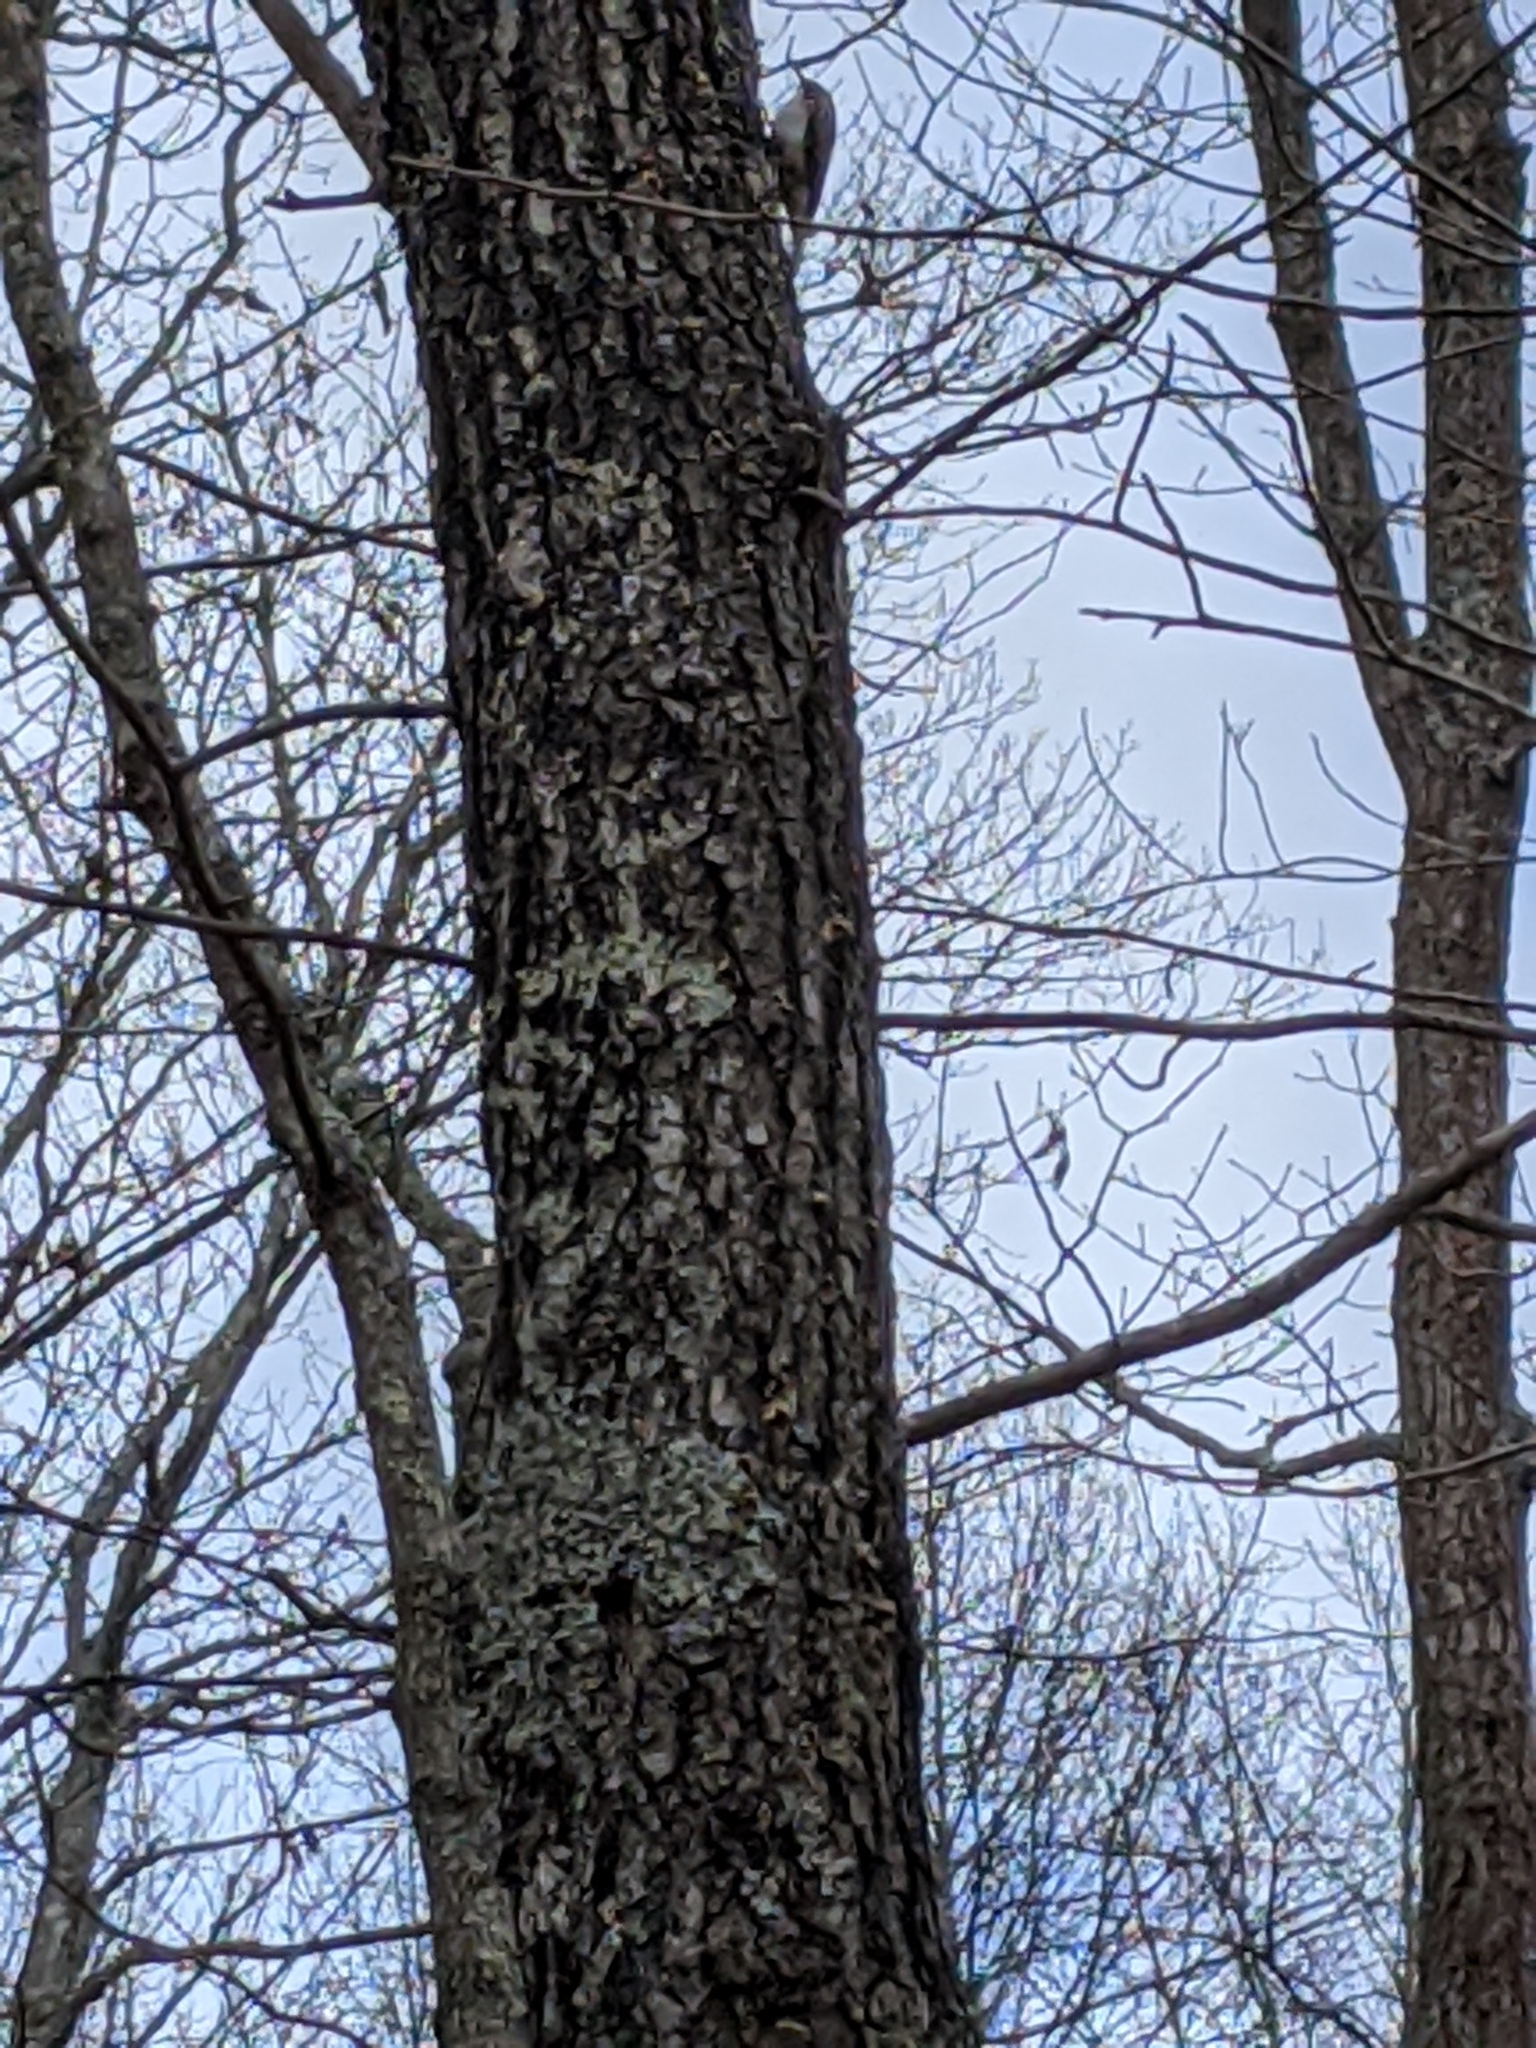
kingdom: Animalia
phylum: Chordata
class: Aves
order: Passeriformes
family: Certhiidae
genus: Certhia
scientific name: Certhia americana
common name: Brown creeper
